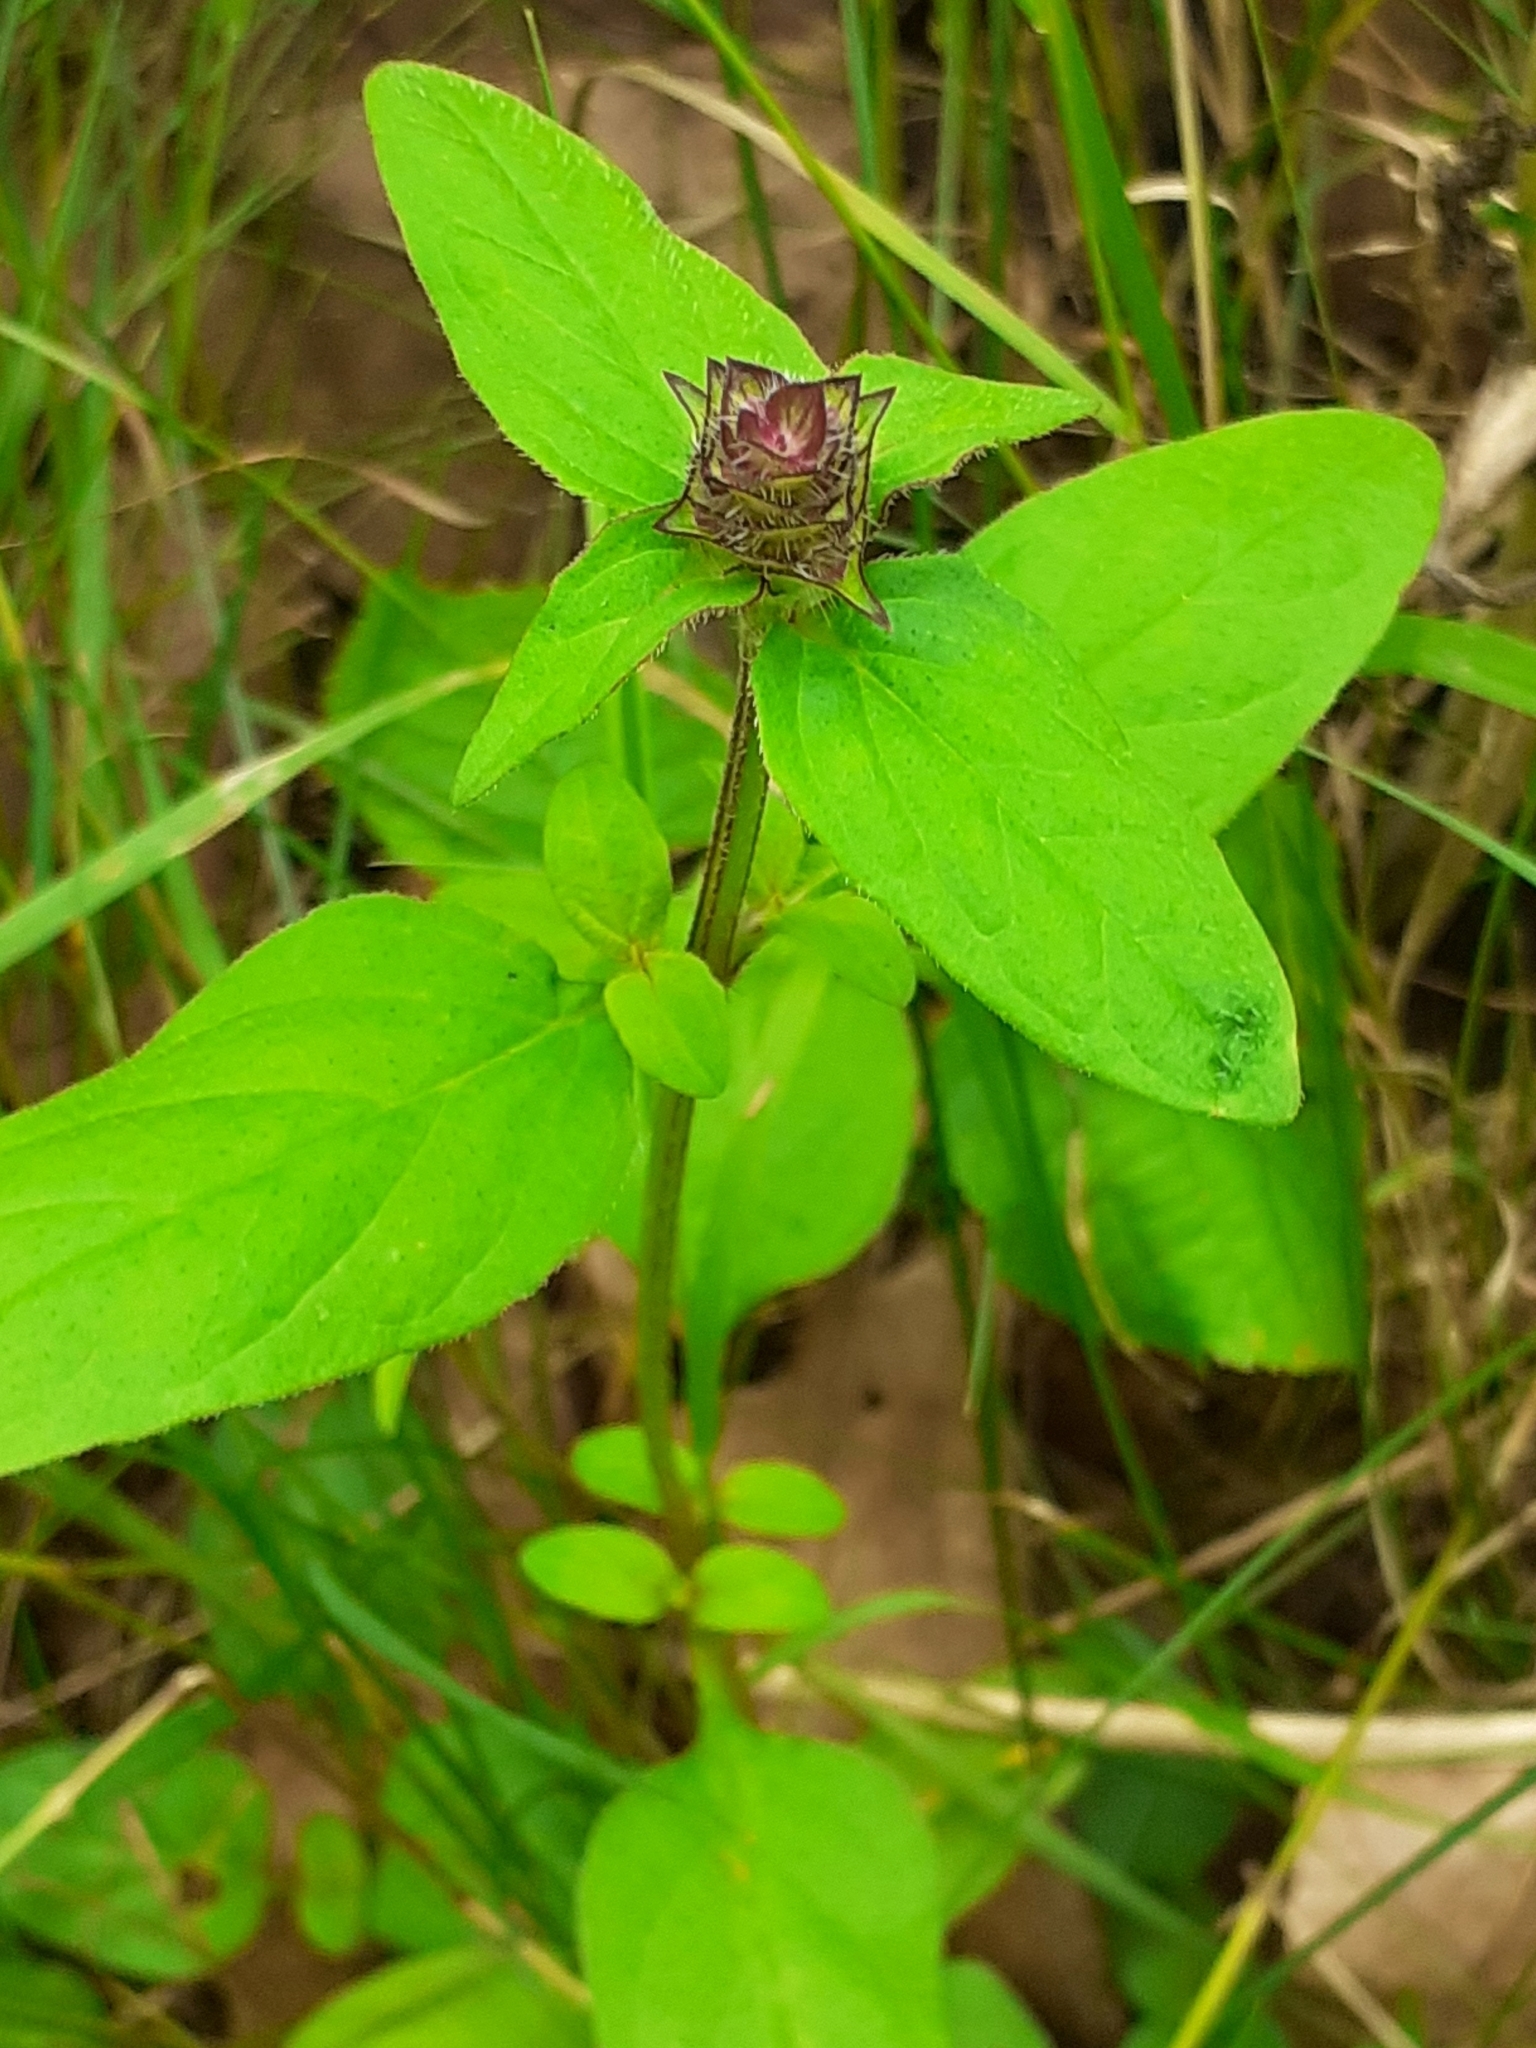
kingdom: Plantae
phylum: Tracheophyta
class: Magnoliopsida
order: Lamiales
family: Lamiaceae
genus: Prunella
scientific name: Prunella vulgaris
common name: Heal-all
